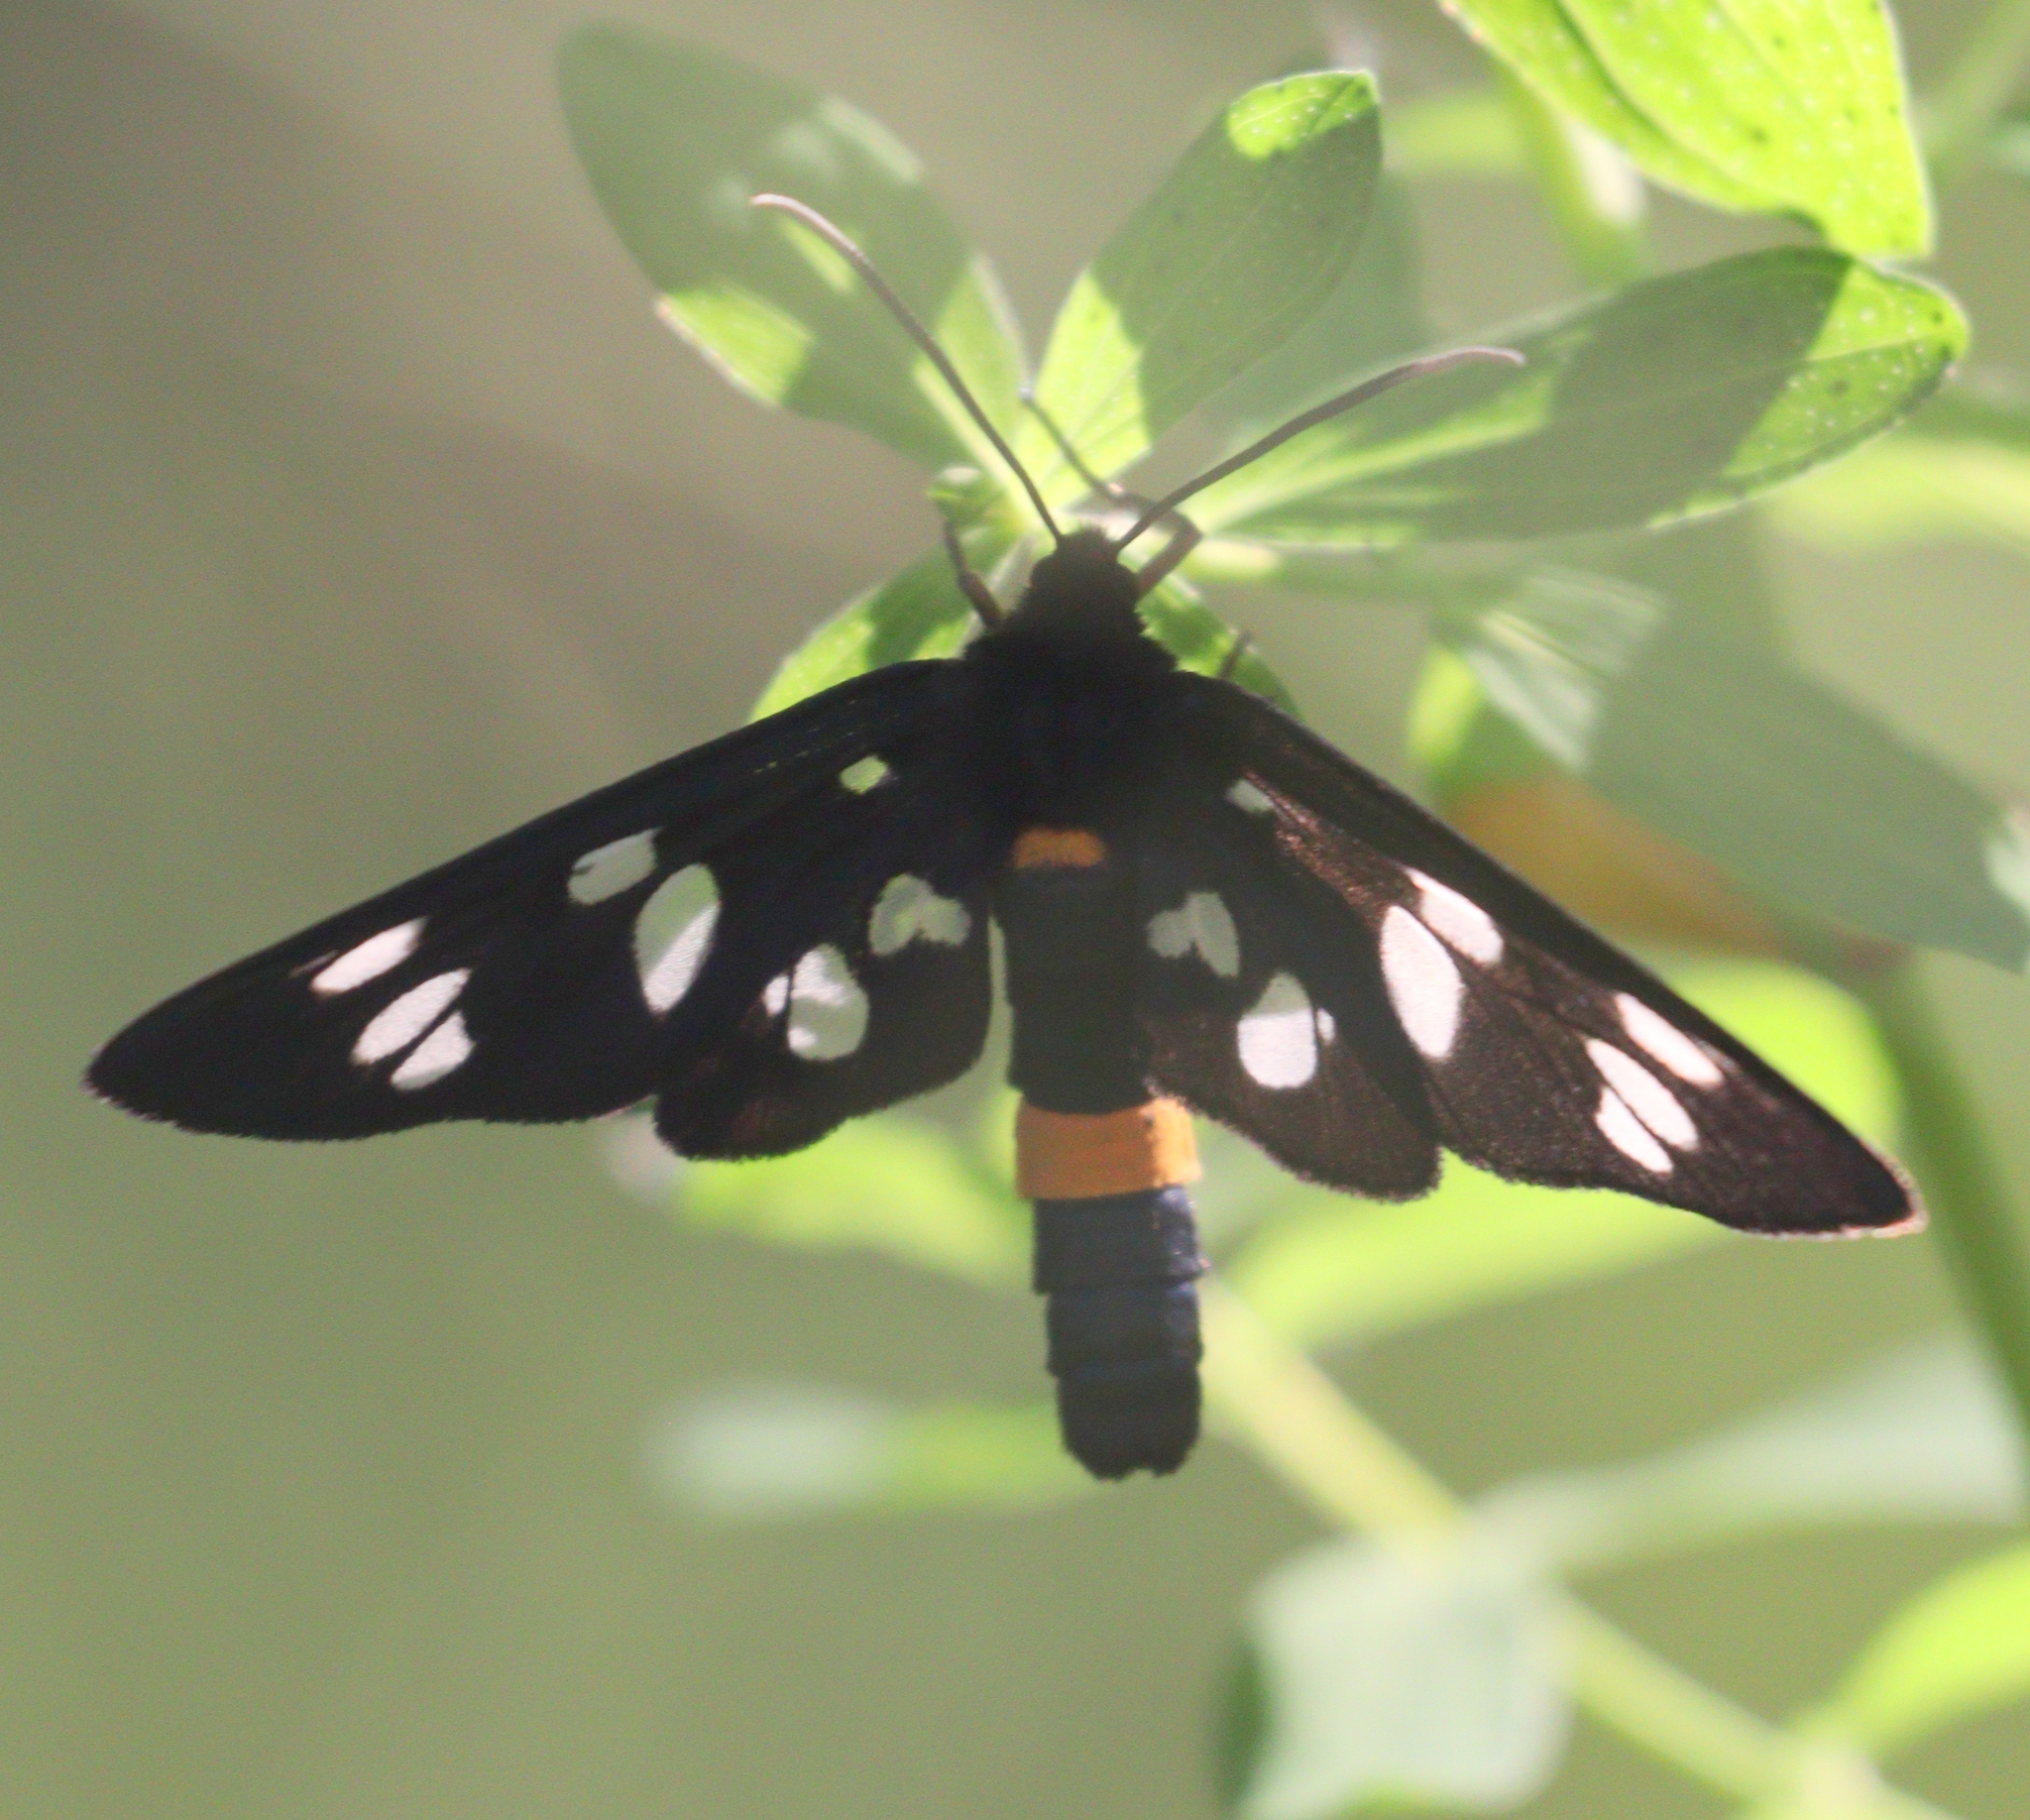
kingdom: Animalia
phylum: Arthropoda
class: Insecta
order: Lepidoptera
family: Erebidae
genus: Amata
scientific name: Amata phegea
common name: Nine-spotted
